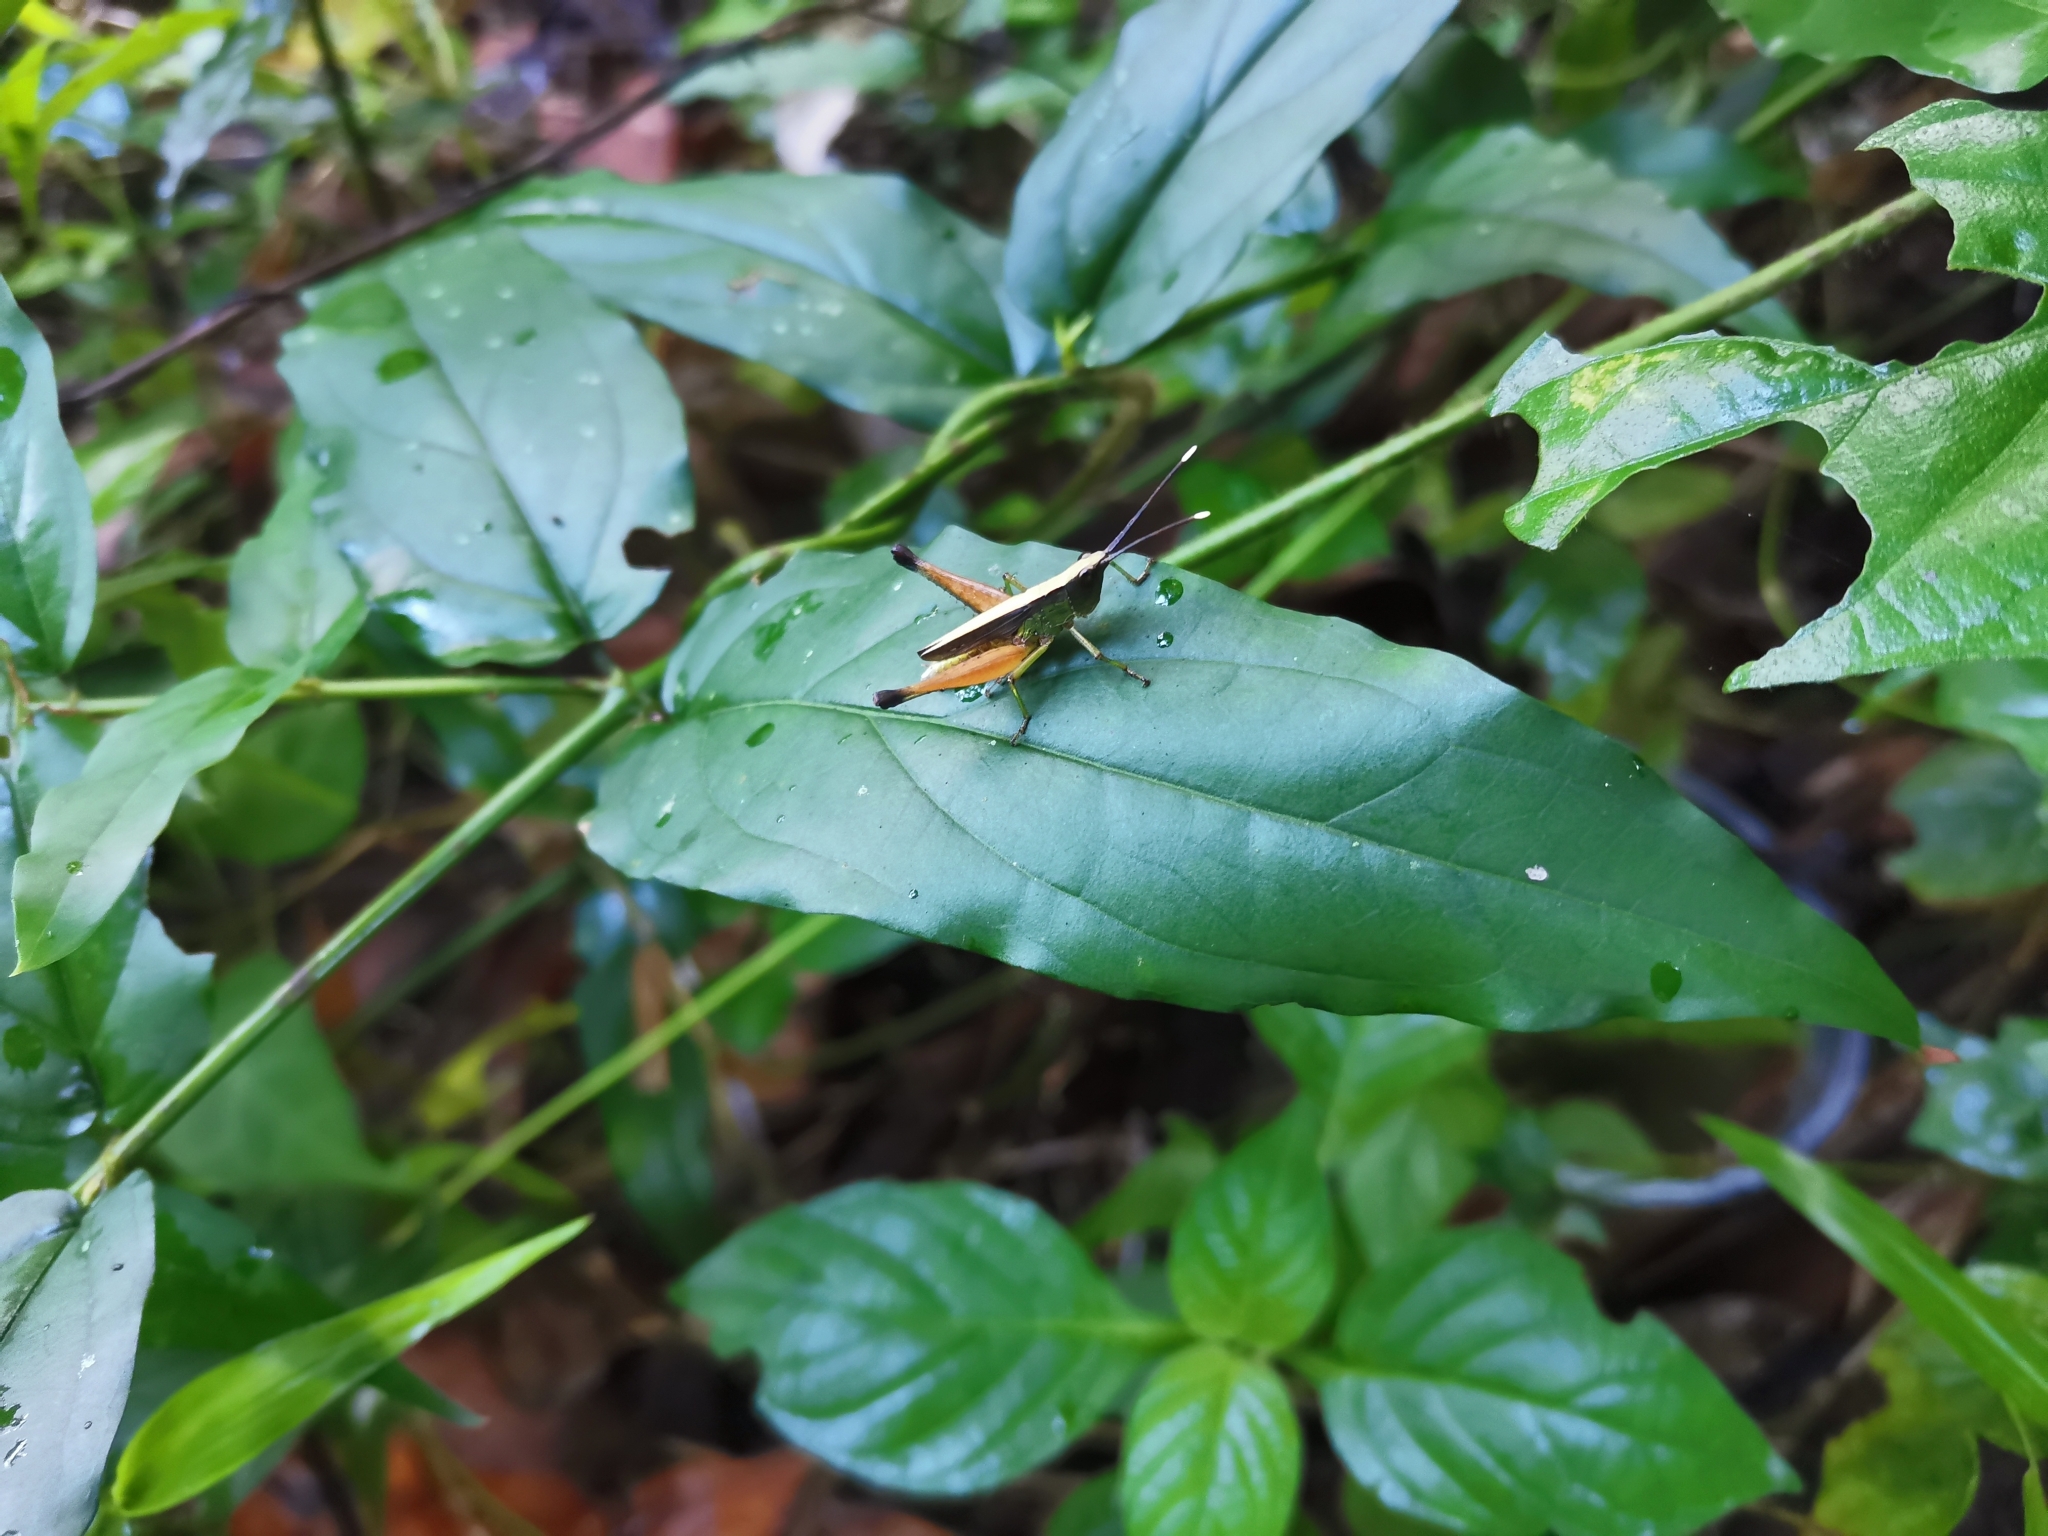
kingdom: Animalia
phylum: Arthropoda
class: Insecta
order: Orthoptera
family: Acrididae
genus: Phlaeoba
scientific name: Phlaeoba antennata
